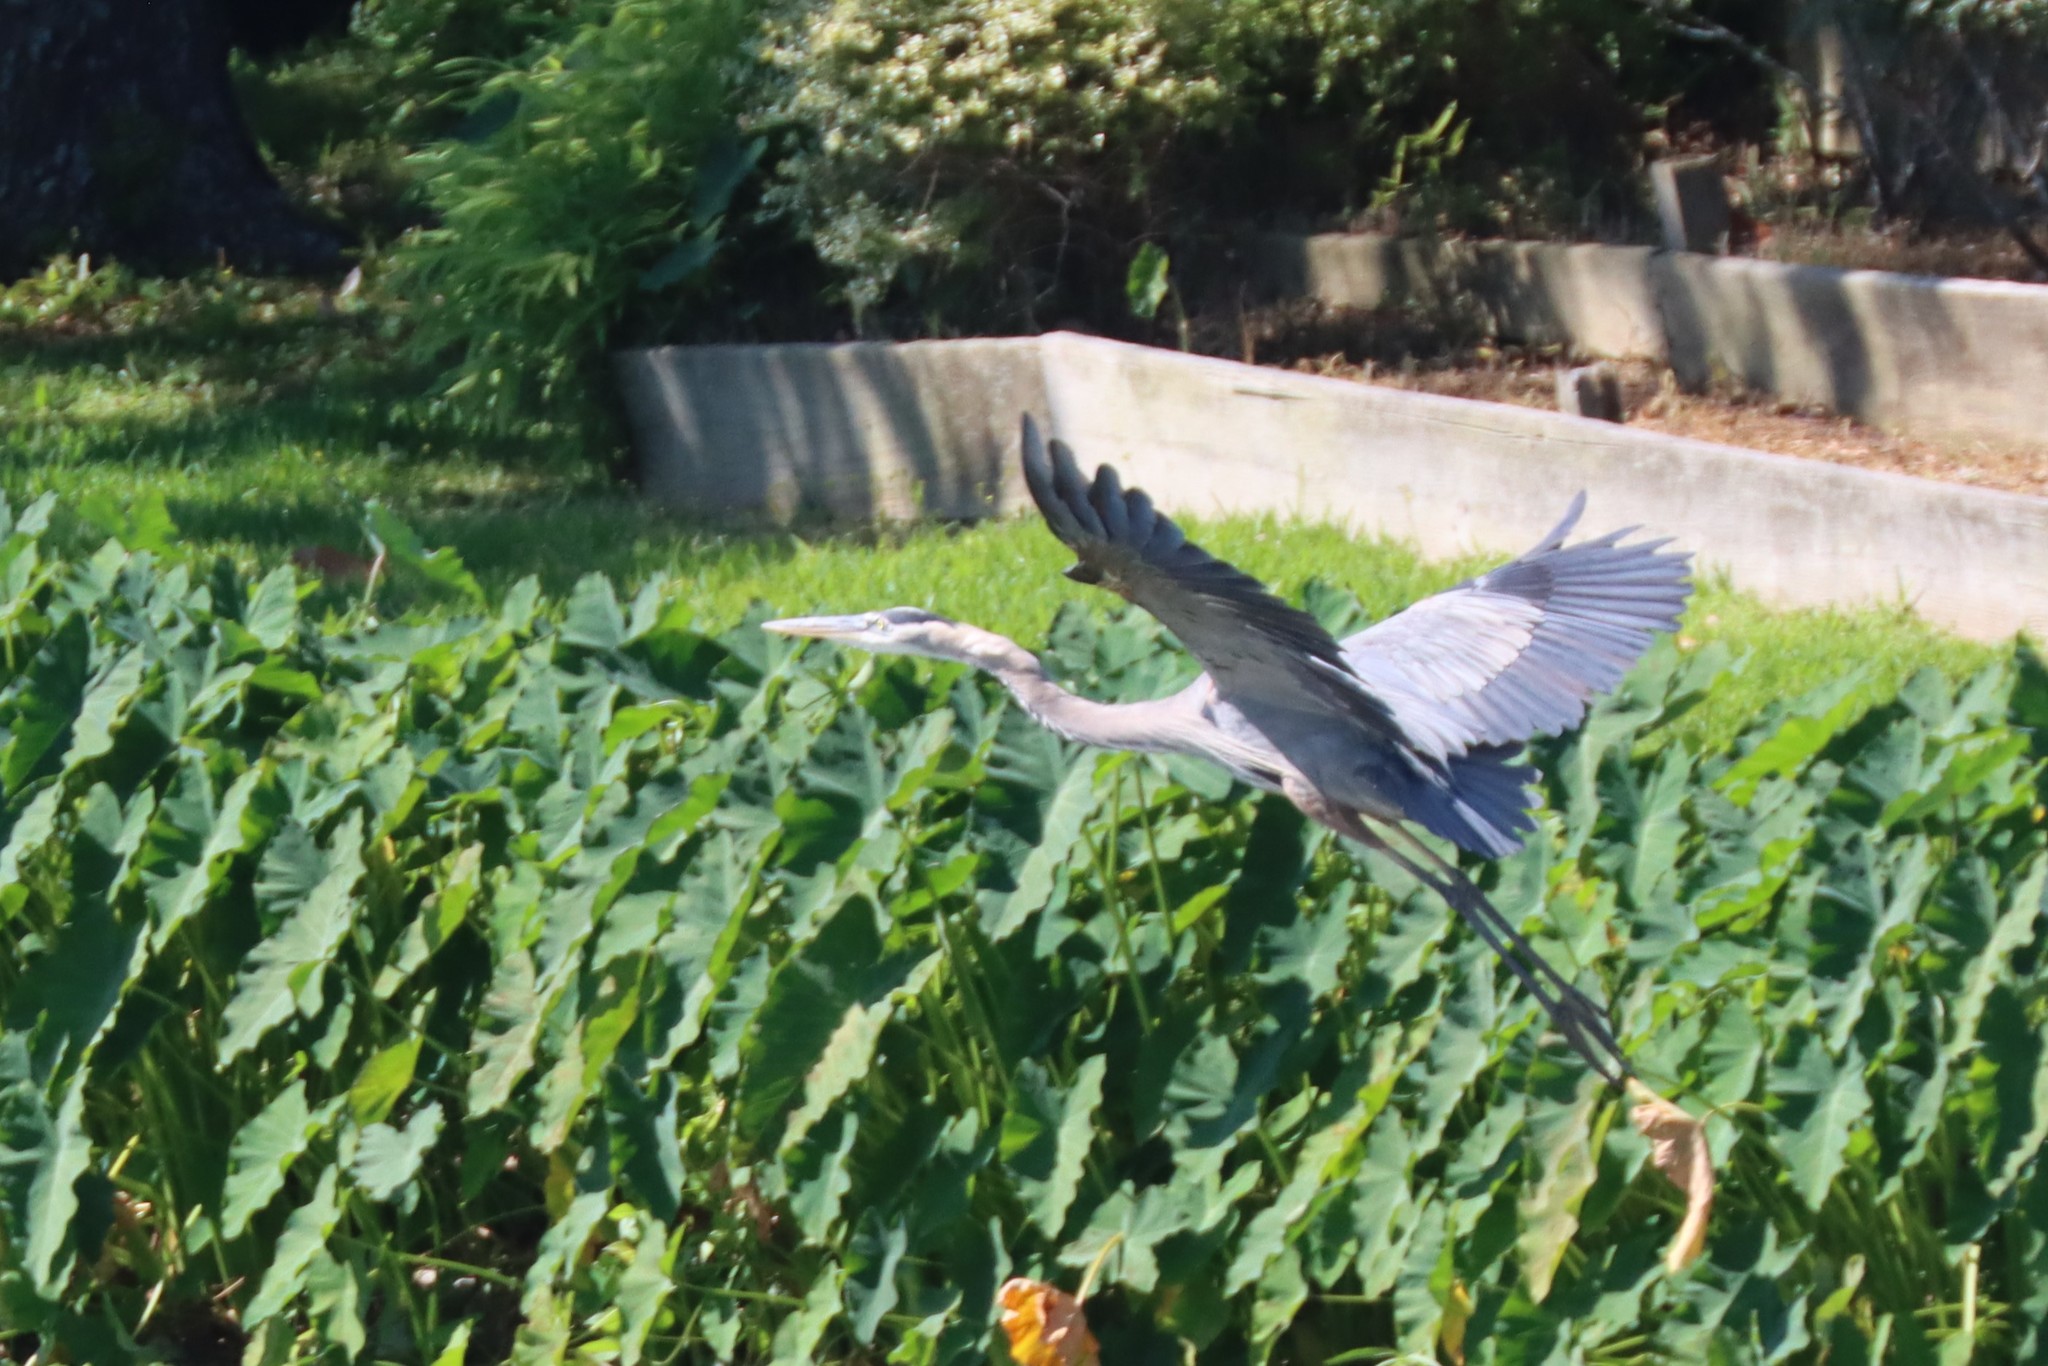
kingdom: Animalia
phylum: Chordata
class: Aves
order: Pelecaniformes
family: Ardeidae
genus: Ardea
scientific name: Ardea herodias
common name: Great blue heron
